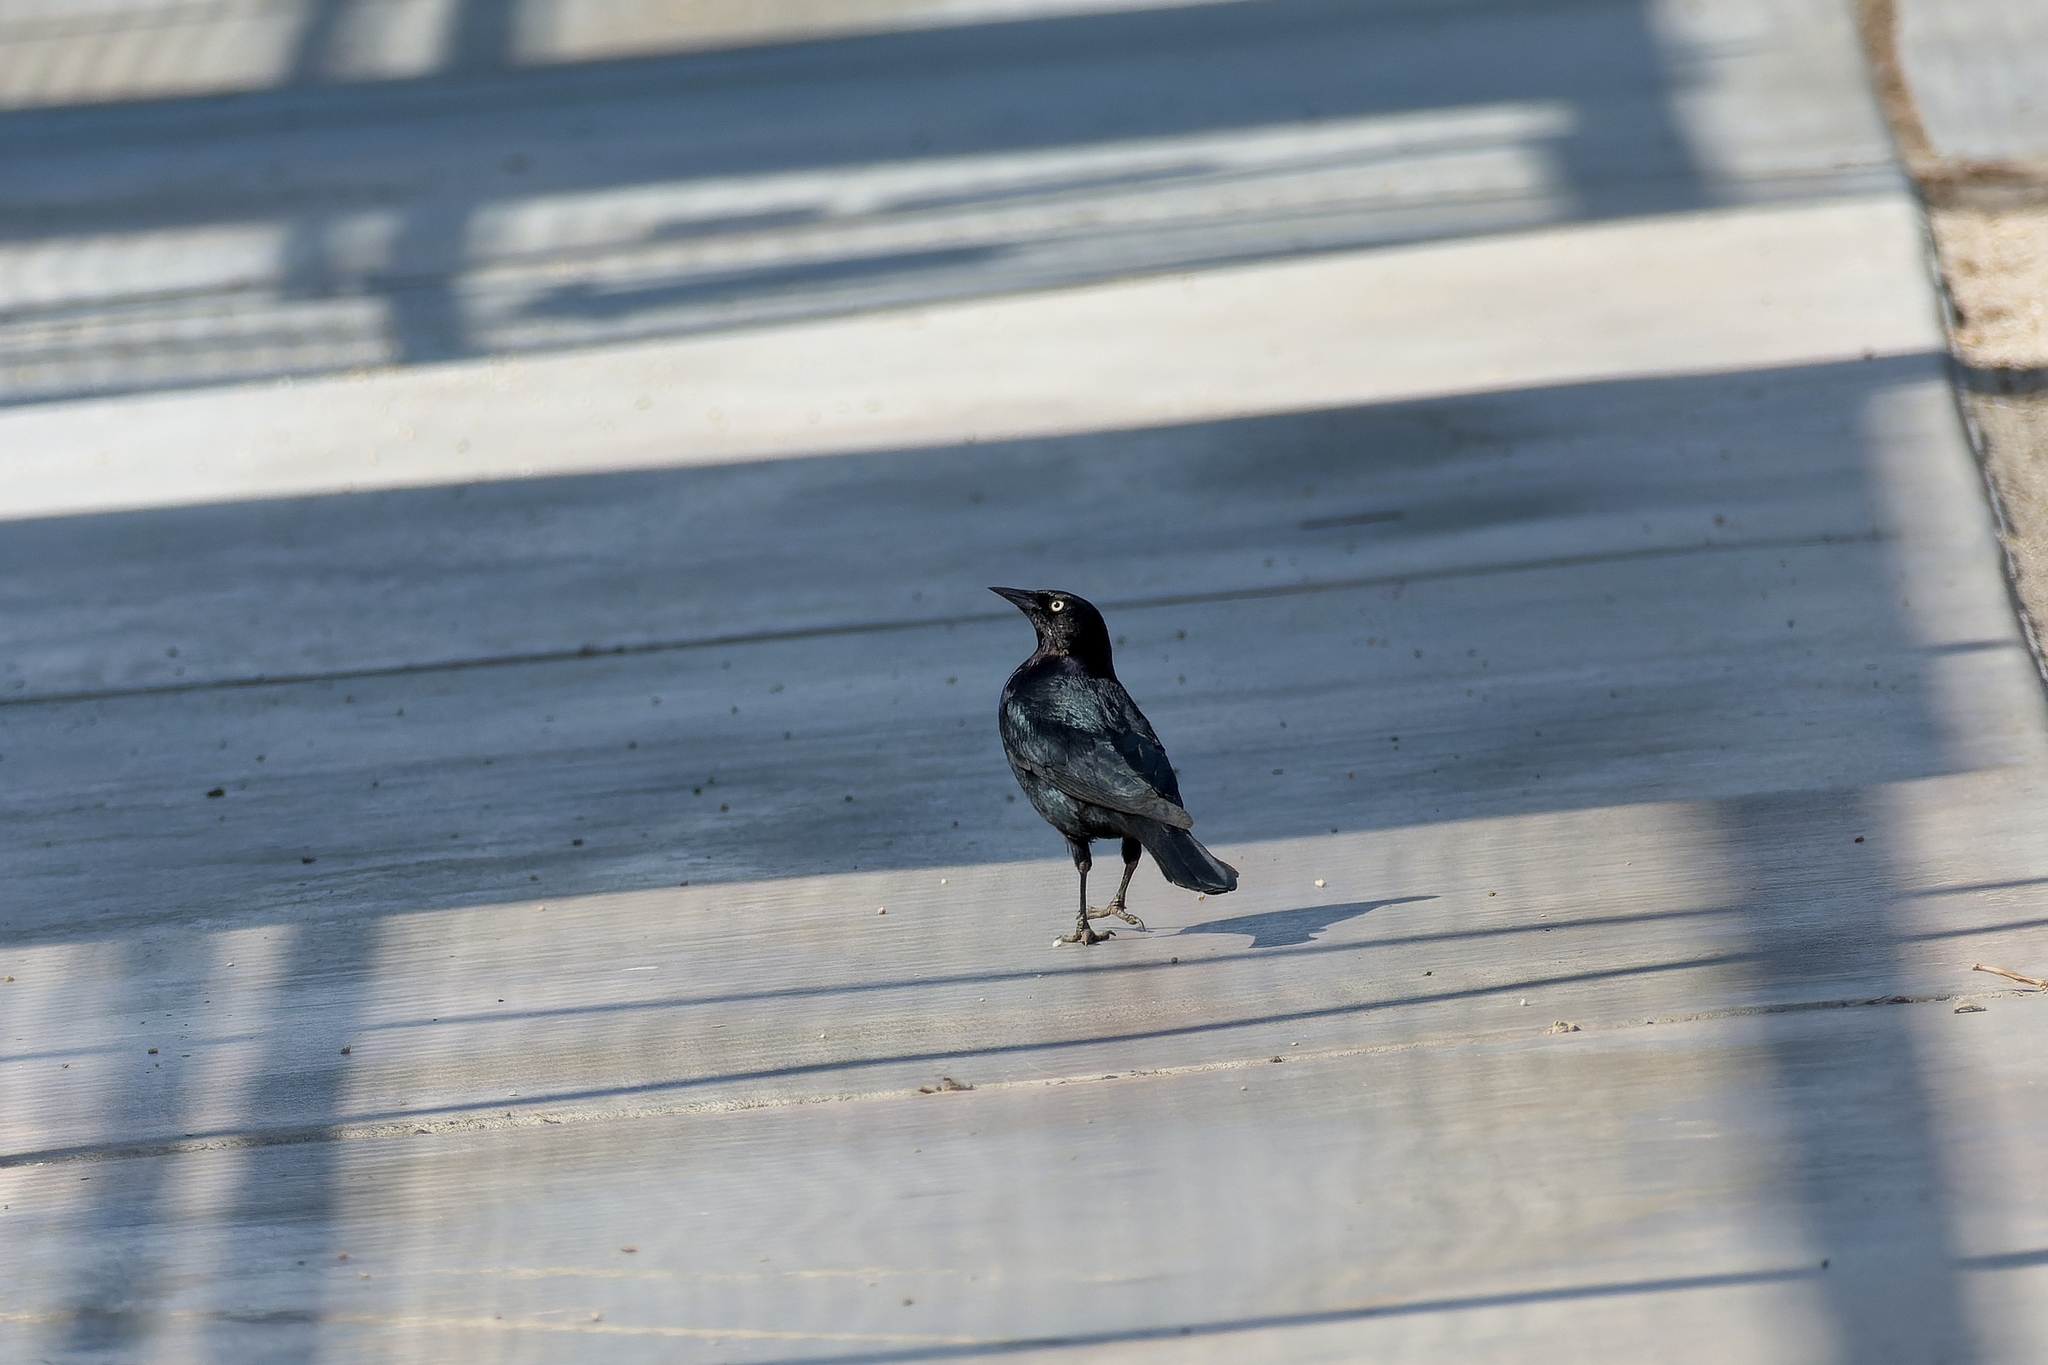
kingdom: Animalia
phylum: Chordata
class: Aves
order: Passeriformes
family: Icteridae
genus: Euphagus
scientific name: Euphagus cyanocephalus
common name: Brewer's blackbird
